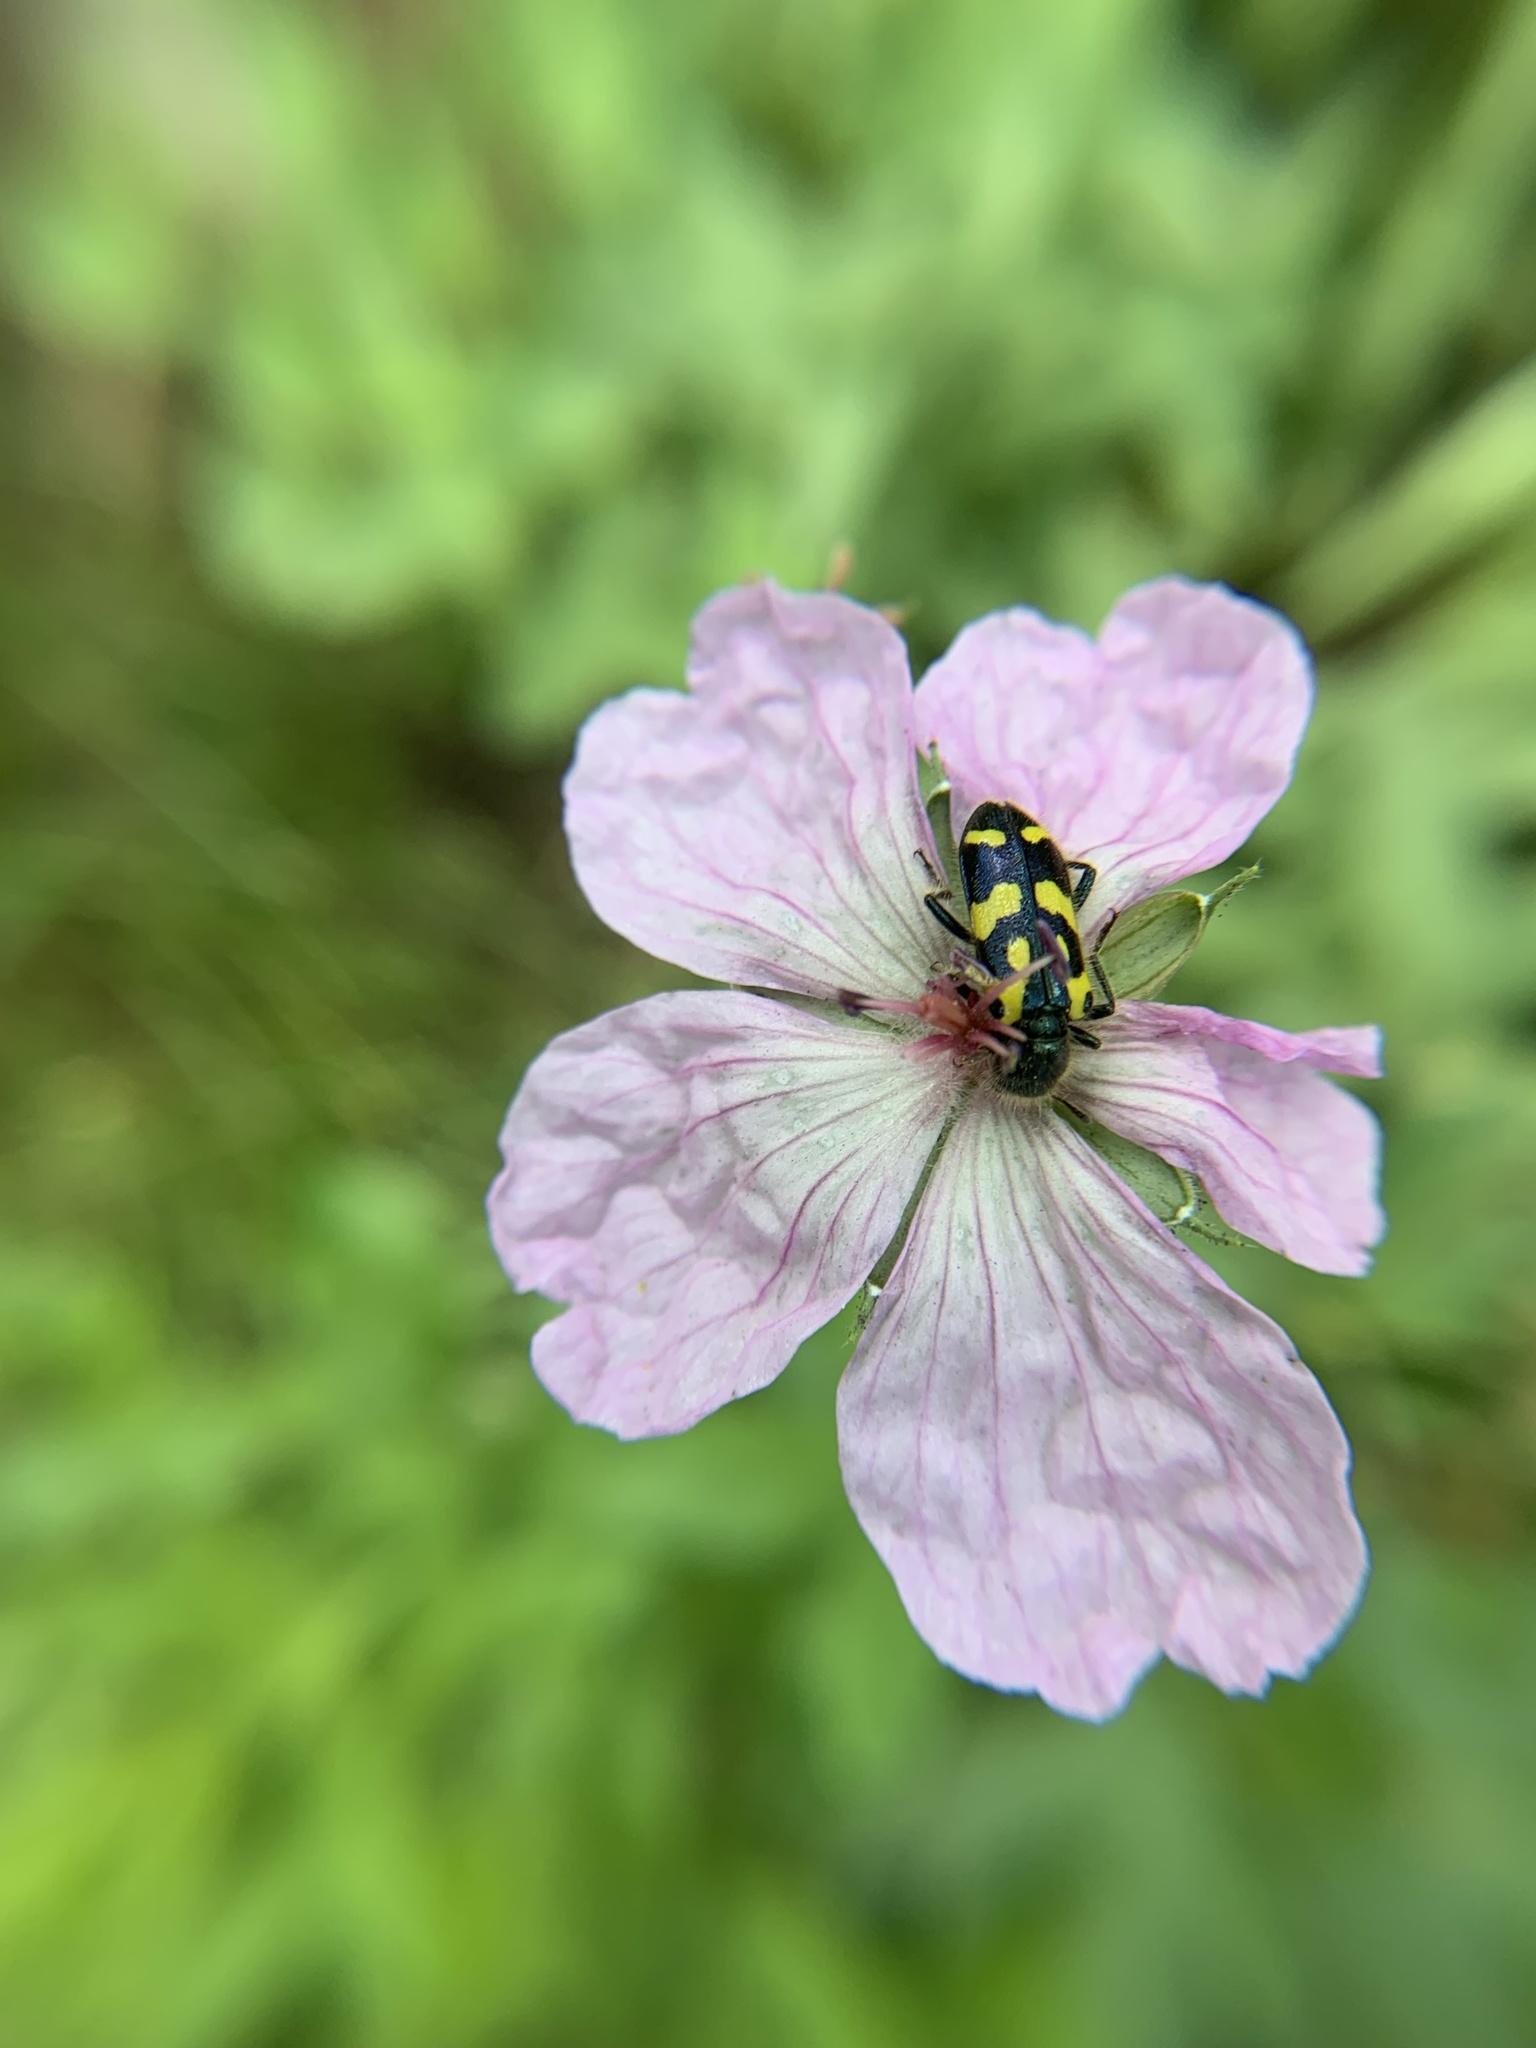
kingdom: Animalia
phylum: Arthropoda
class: Insecta
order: Coleoptera
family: Cleridae
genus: Trichodes
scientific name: Trichodes ornatus
